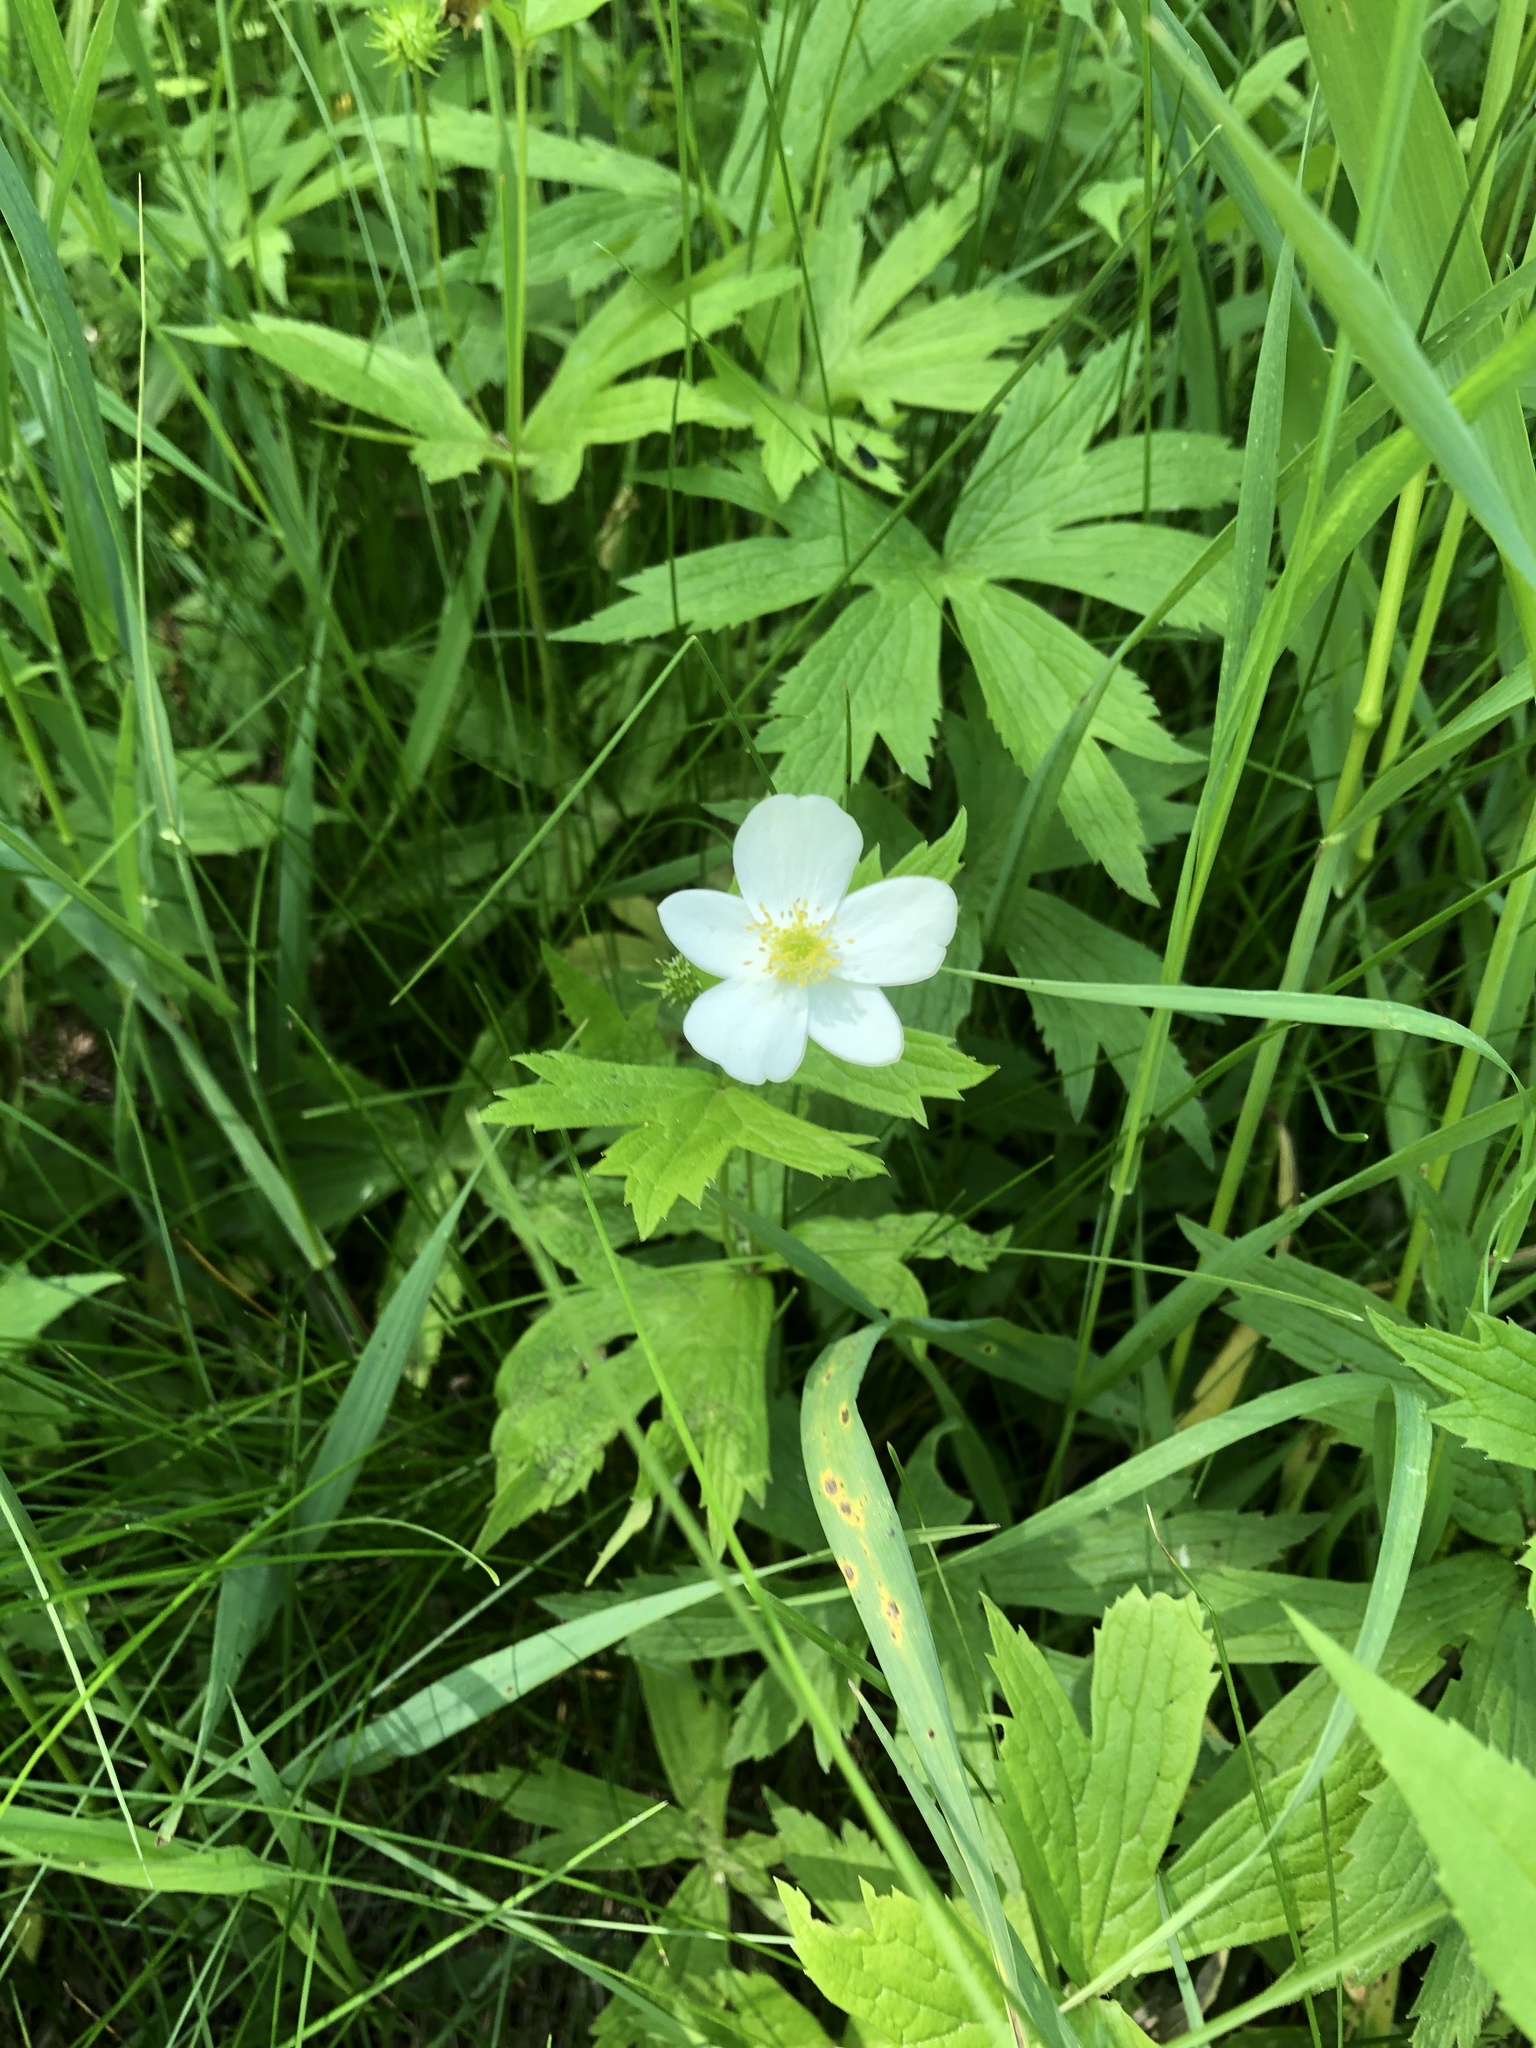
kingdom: Plantae
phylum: Tracheophyta
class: Magnoliopsida
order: Ranunculales
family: Ranunculaceae
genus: Anemonastrum
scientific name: Anemonastrum canadense
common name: Canada anemone
